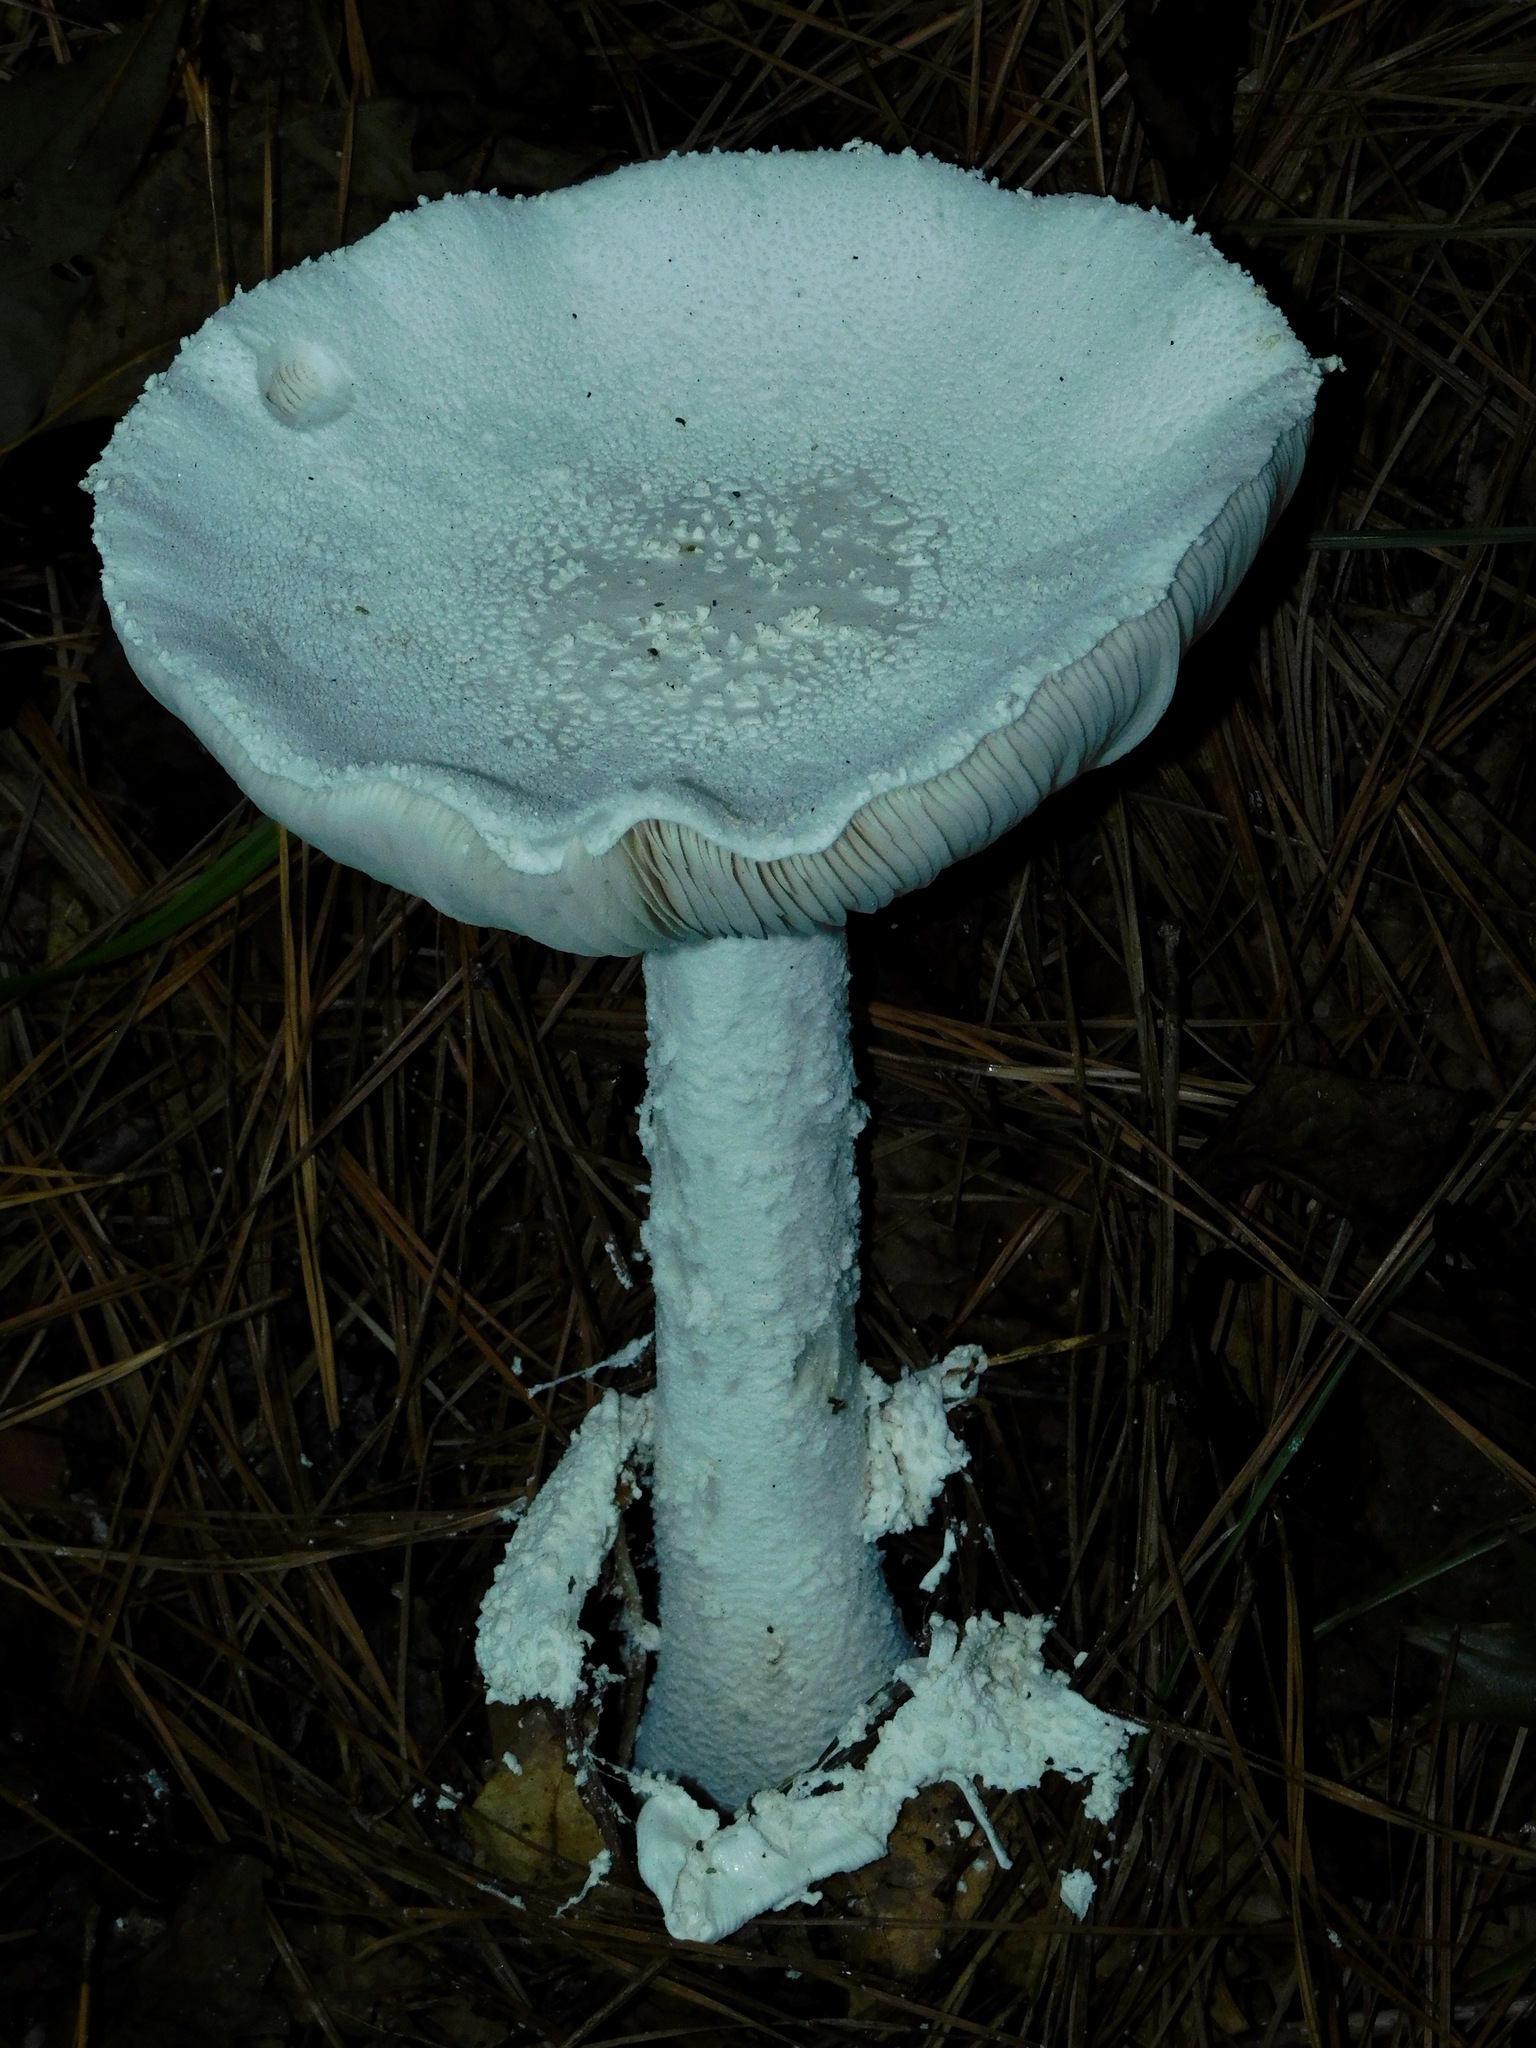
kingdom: Fungi
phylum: Basidiomycota
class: Agaricomycetes
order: Agaricales
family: Amanitaceae
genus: Amanita
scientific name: Amanita polypyramis
